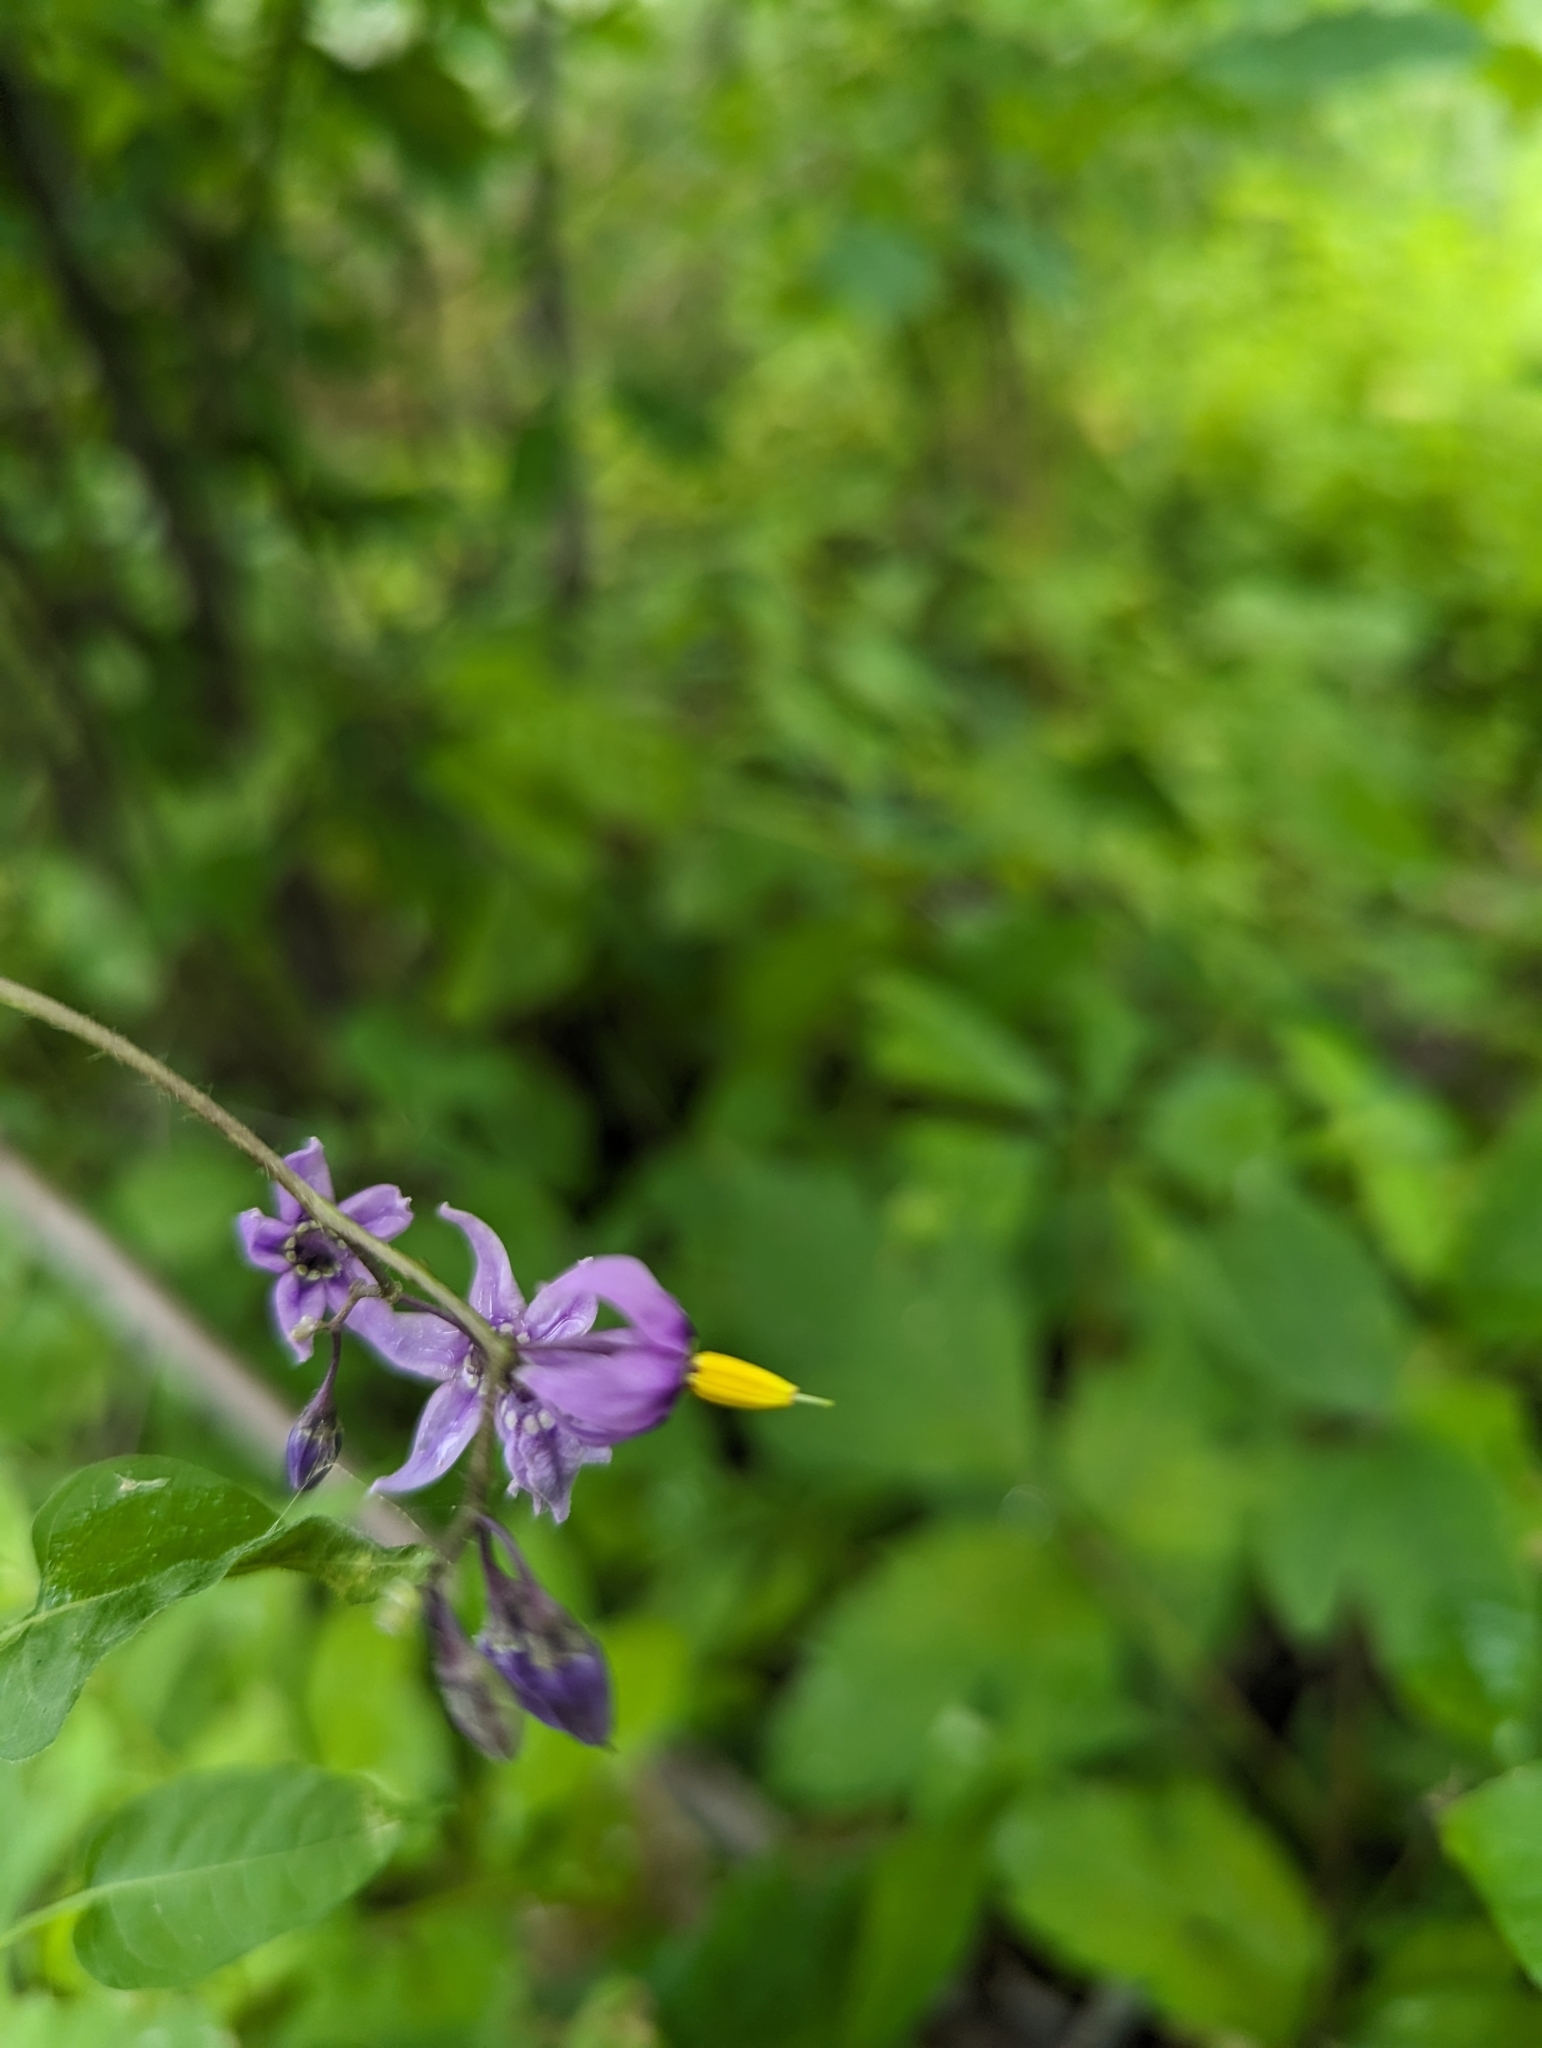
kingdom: Plantae
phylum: Tracheophyta
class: Magnoliopsida
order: Solanales
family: Solanaceae
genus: Solanum
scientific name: Solanum dulcamara
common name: Climbing nightshade
